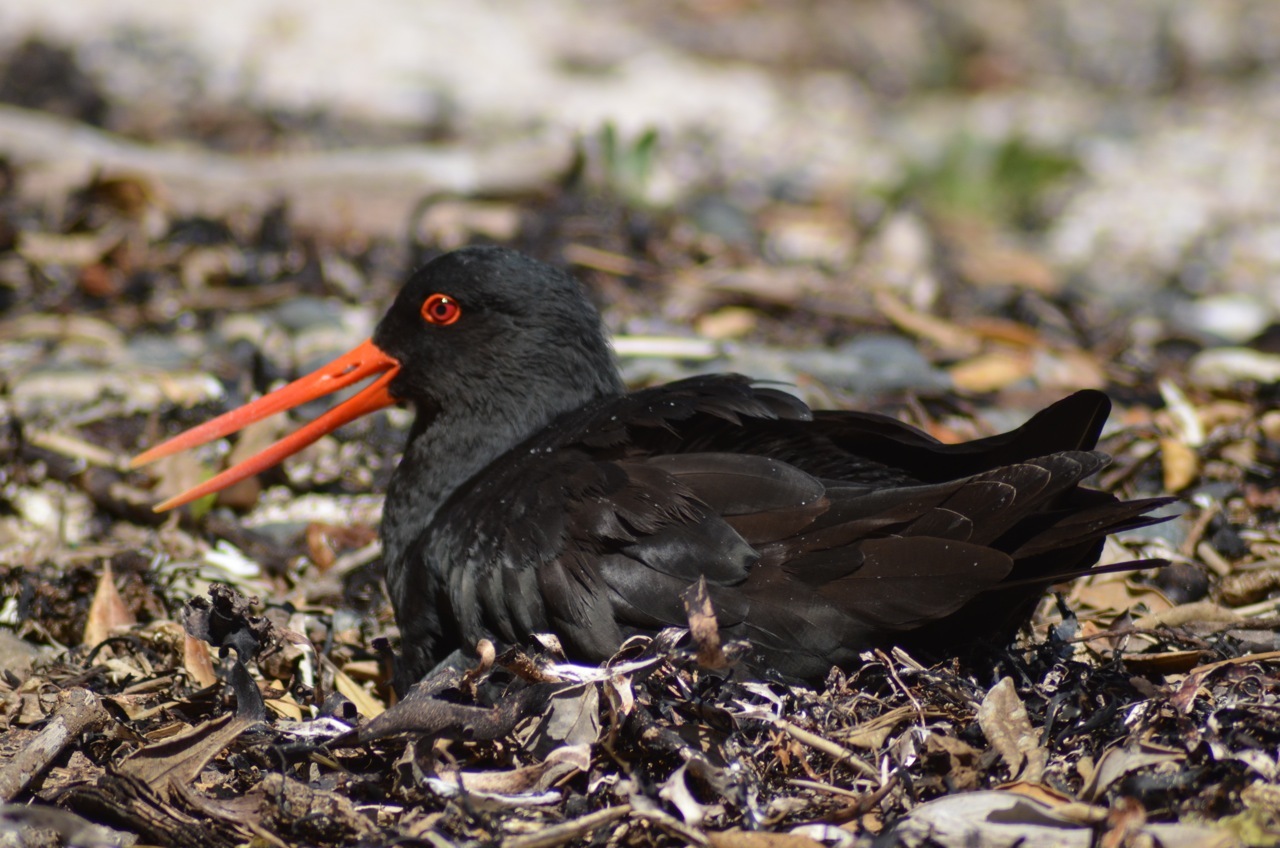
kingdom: Animalia
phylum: Chordata
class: Aves
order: Charadriiformes
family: Haematopodidae
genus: Haematopus
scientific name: Haematopus unicolor
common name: Variable oystercatcher
